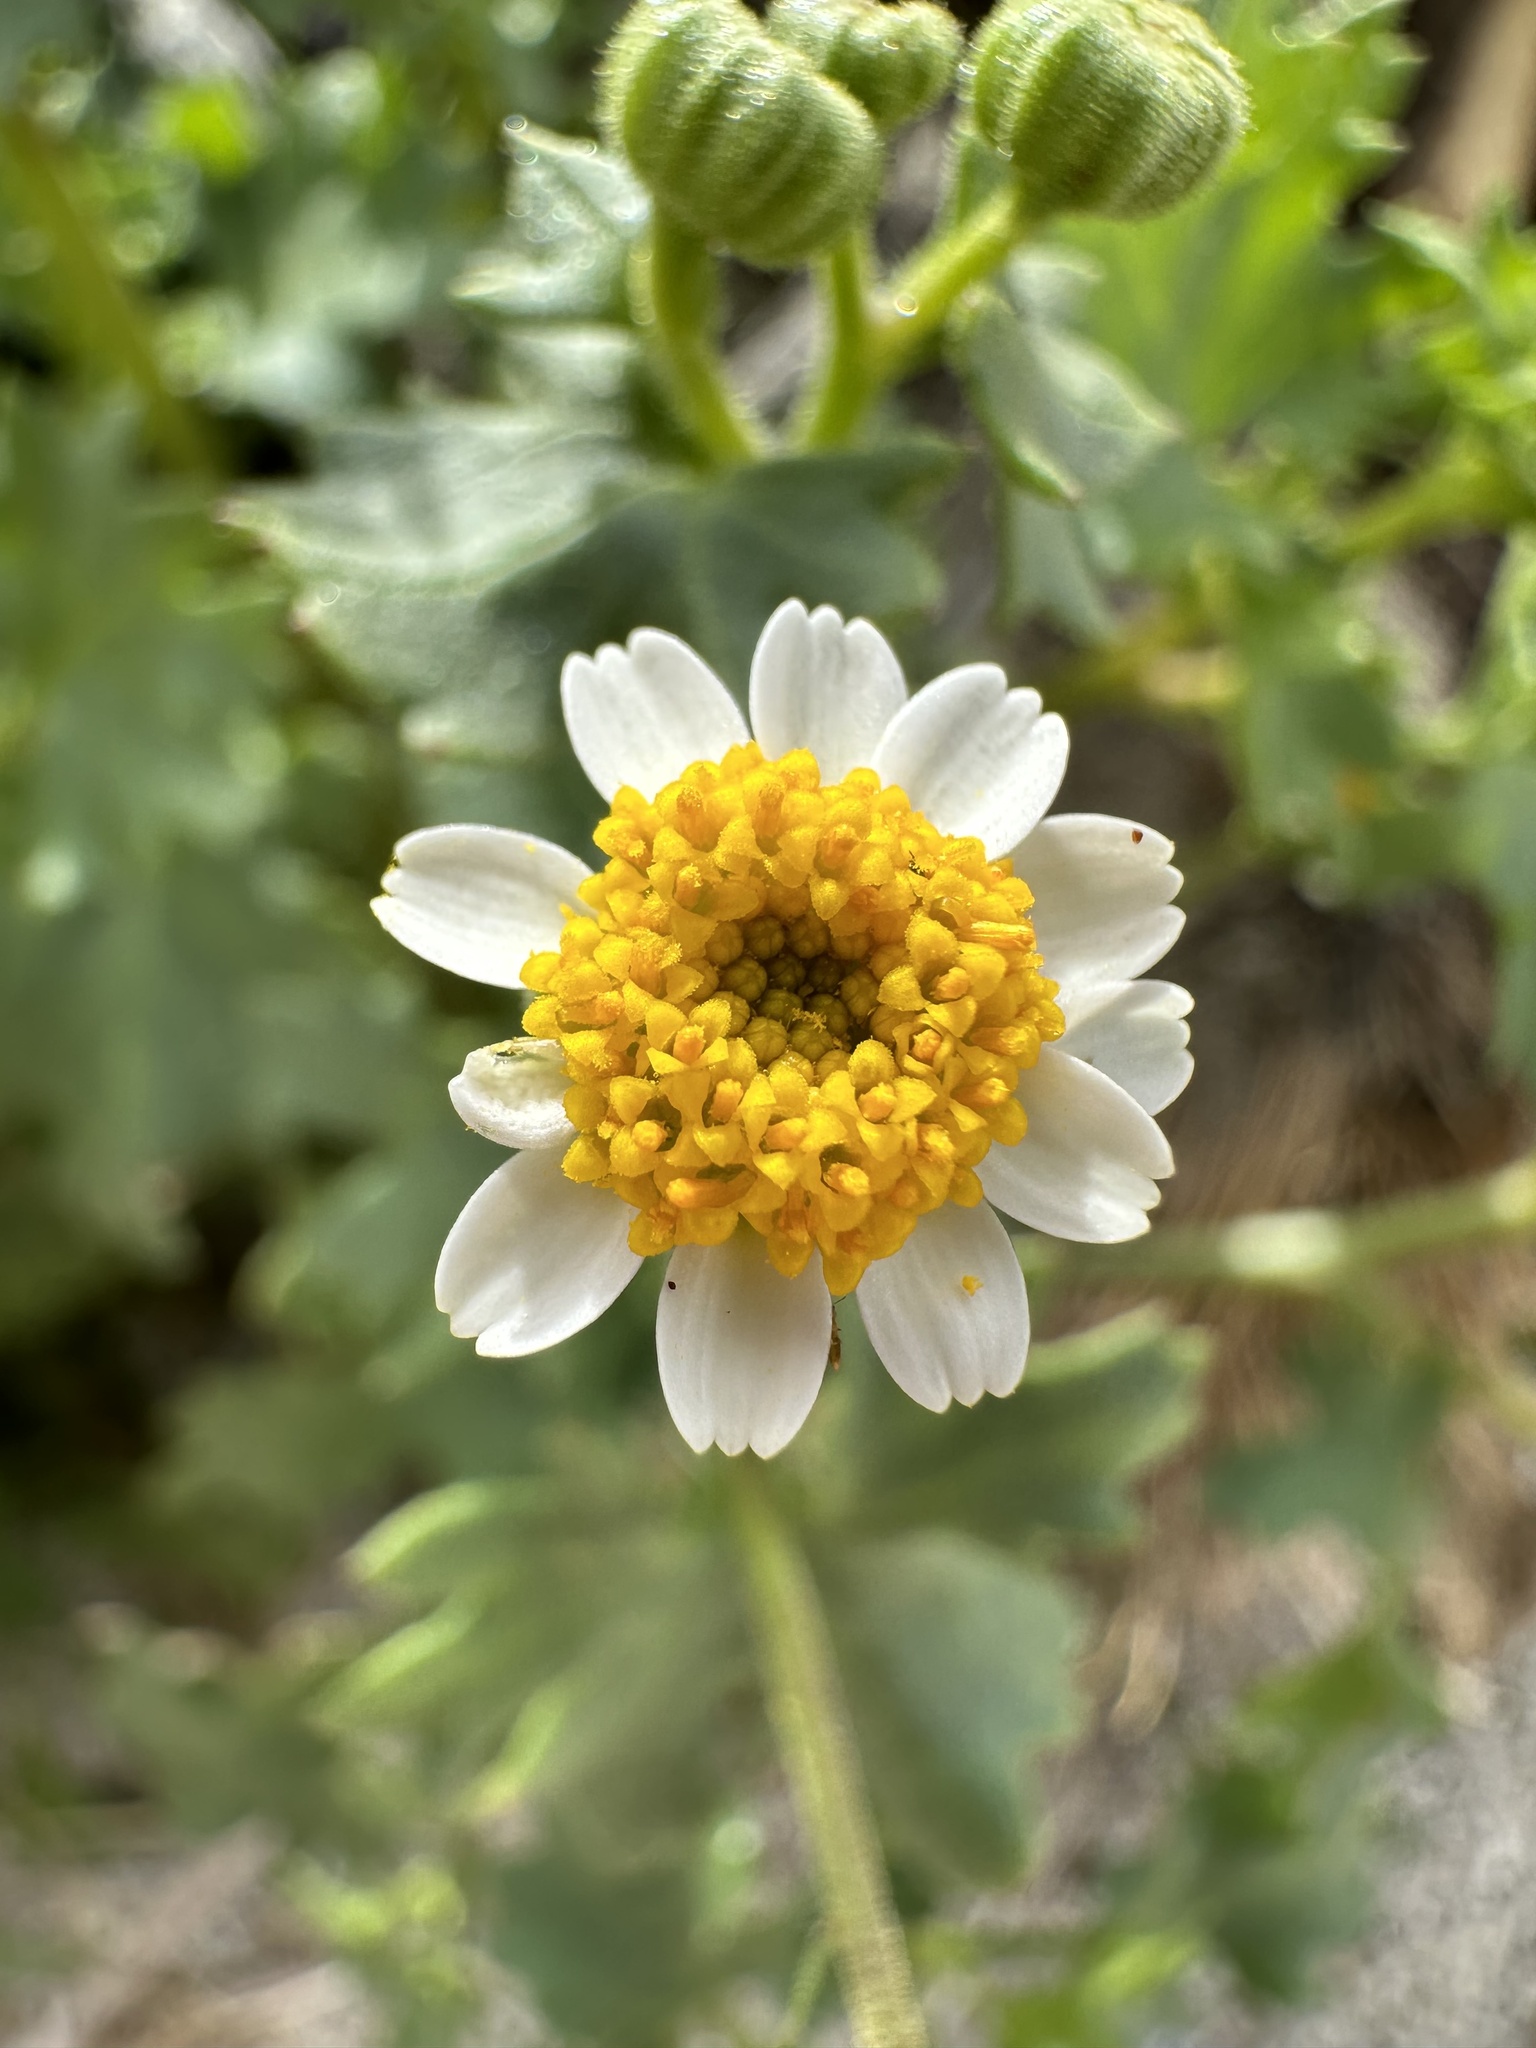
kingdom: Plantae
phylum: Tracheophyta
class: Magnoliopsida
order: Asterales
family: Asteraceae
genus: Laphamia
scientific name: Laphamia emoryi
